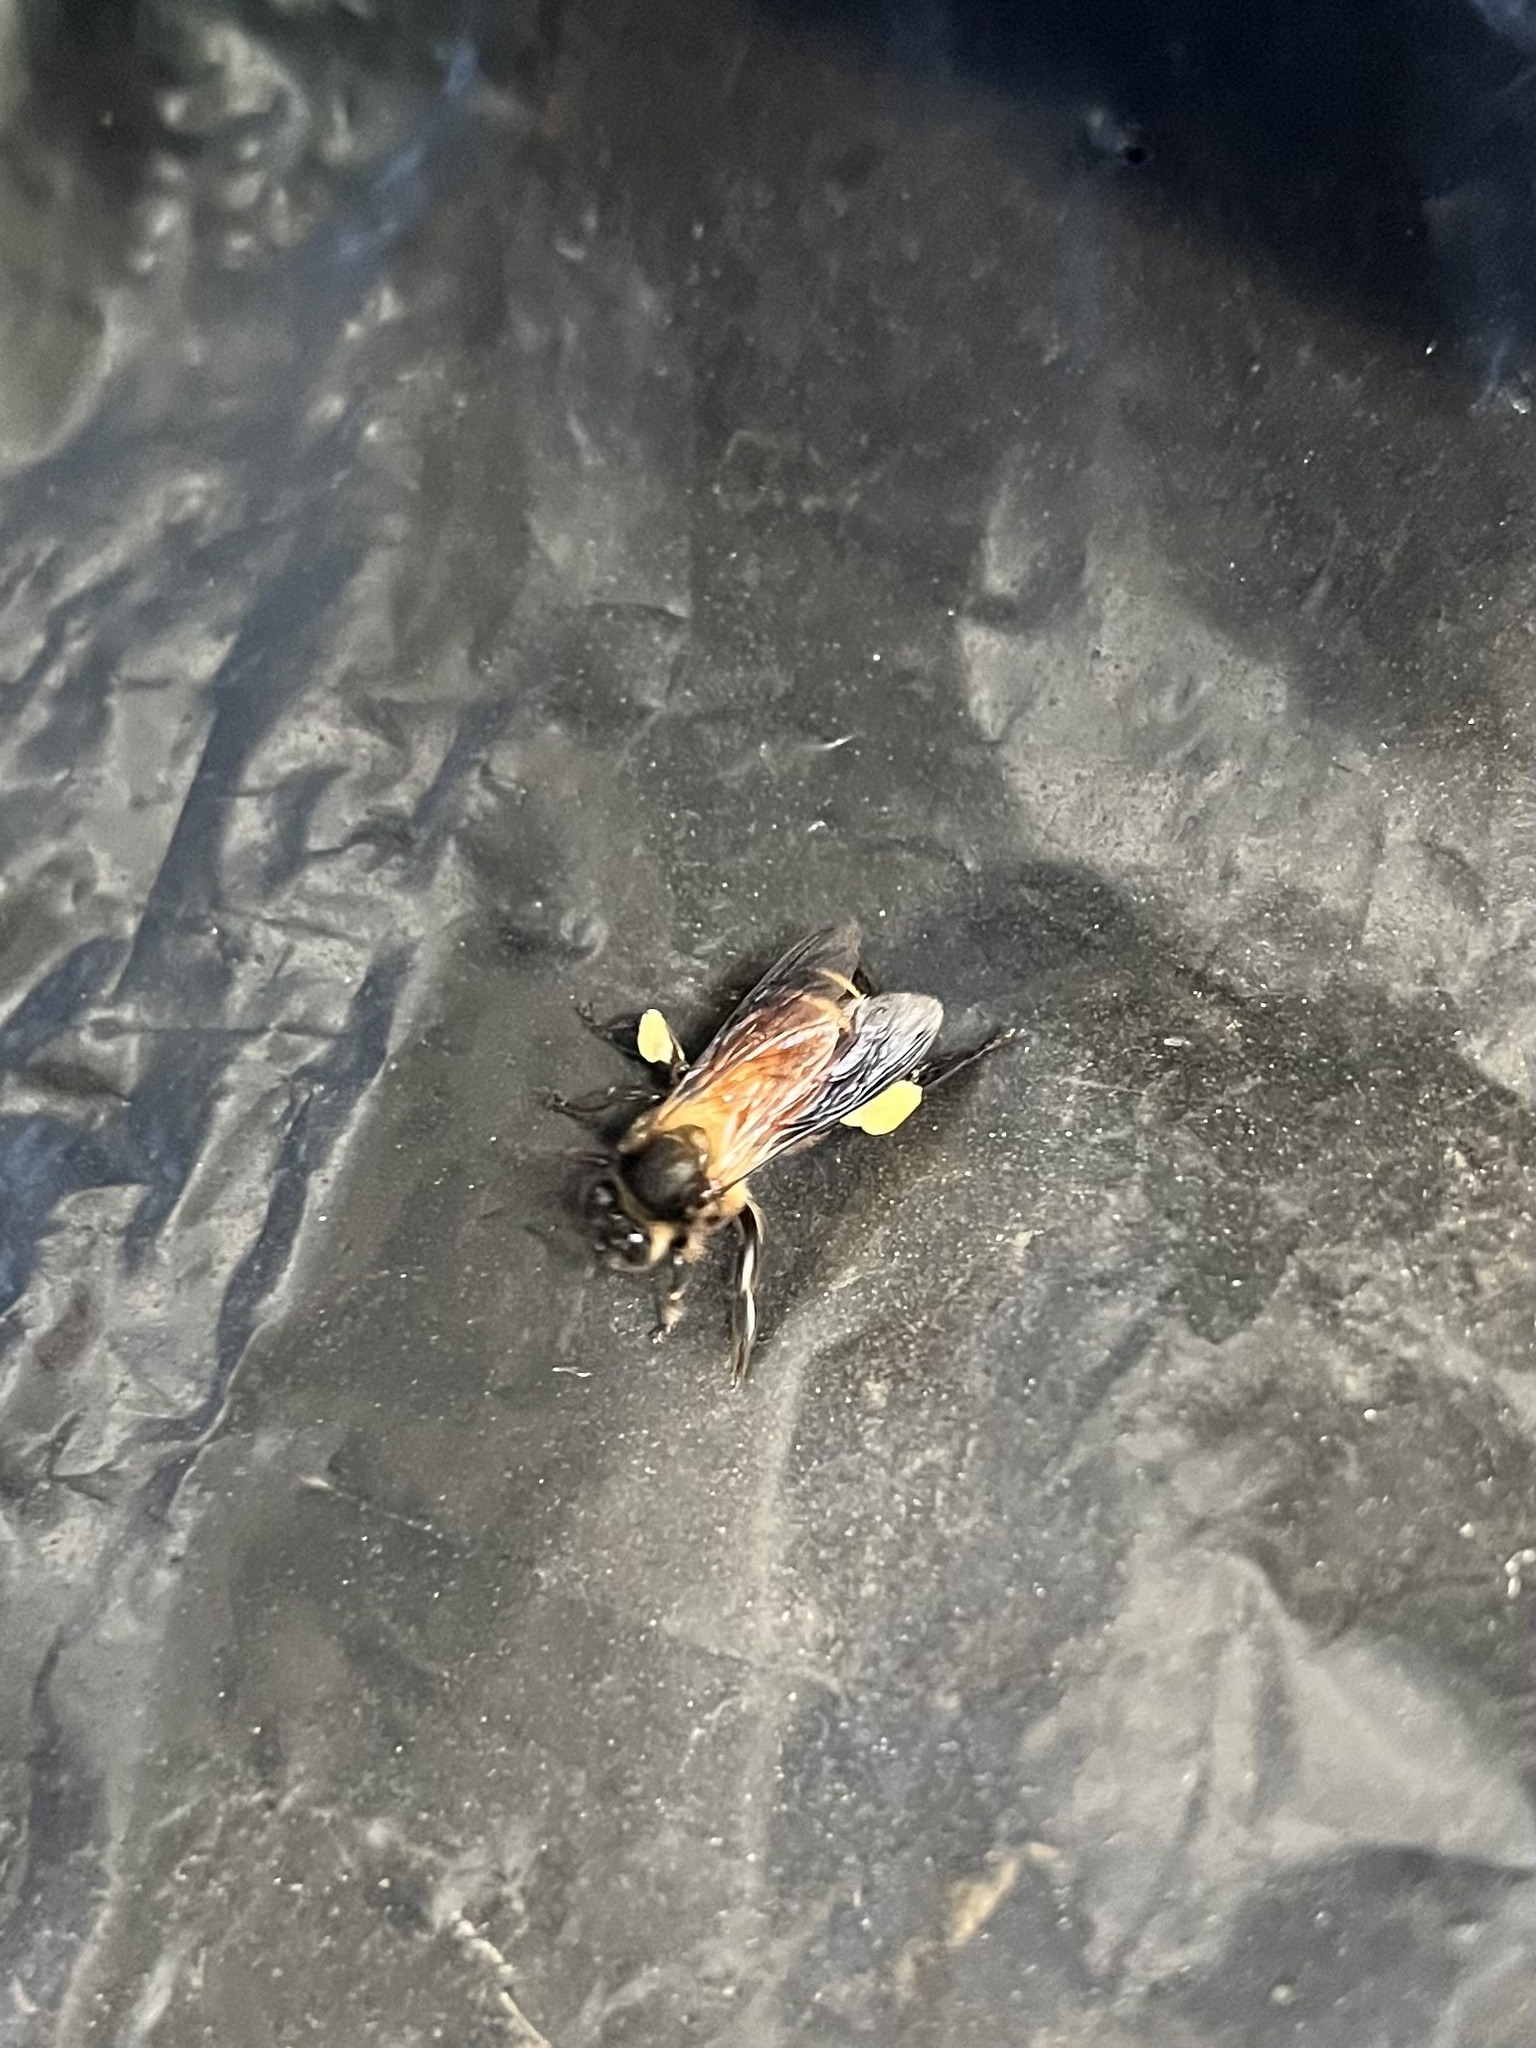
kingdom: Animalia
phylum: Arthropoda
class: Insecta
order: Hymenoptera
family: Apidae
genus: Apis
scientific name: Apis dorsata
